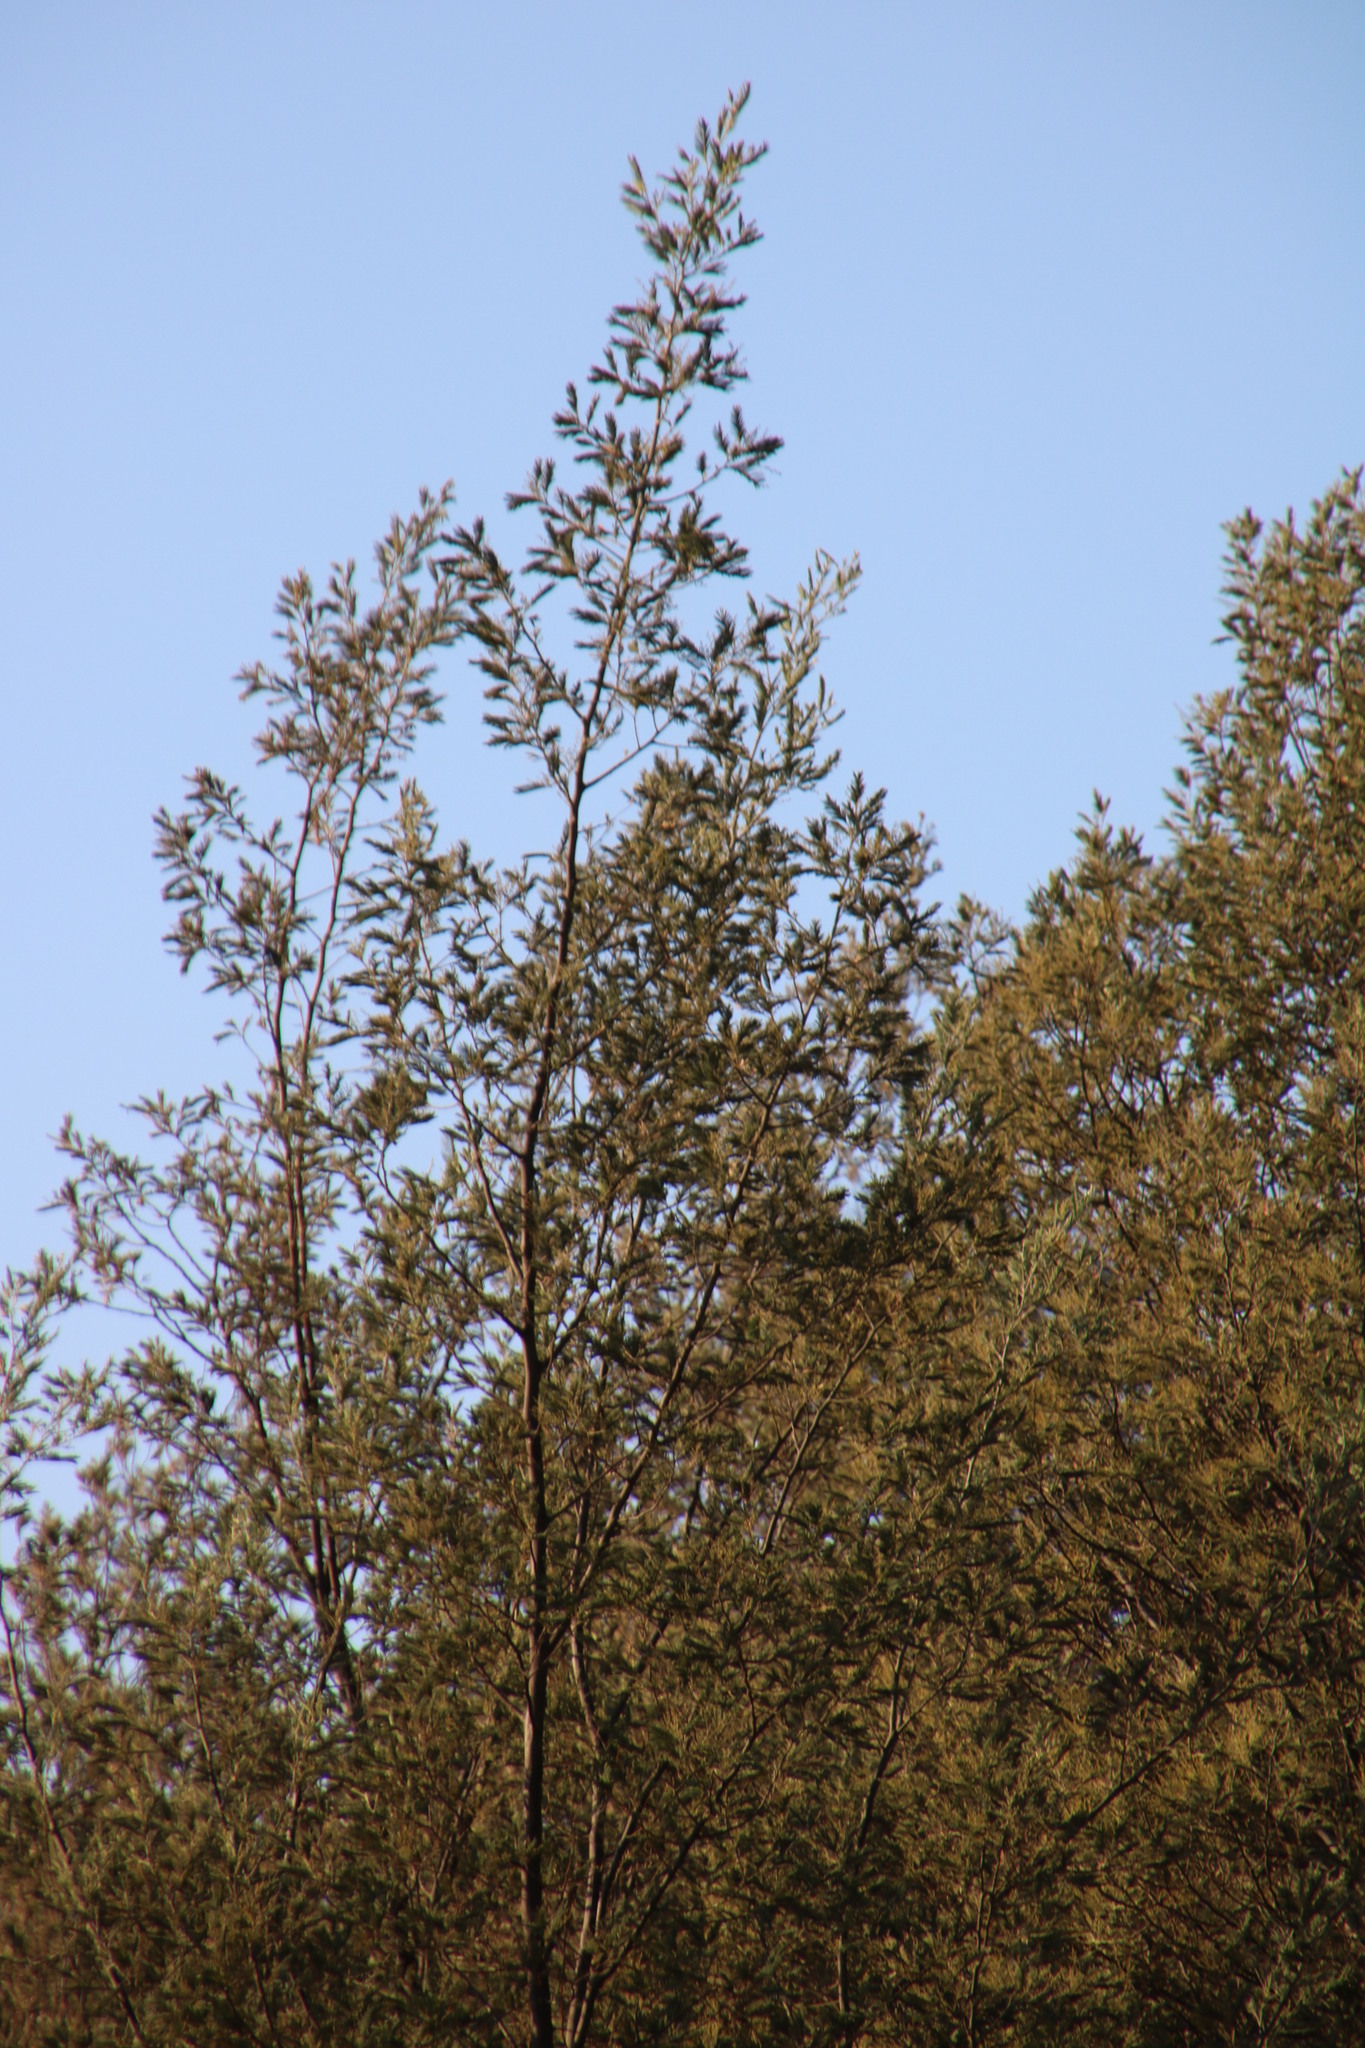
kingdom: Plantae
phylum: Tracheophyta
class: Magnoliopsida
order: Fabales
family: Fabaceae
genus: Acacia
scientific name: Acacia dealbata
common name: Silver wattle
